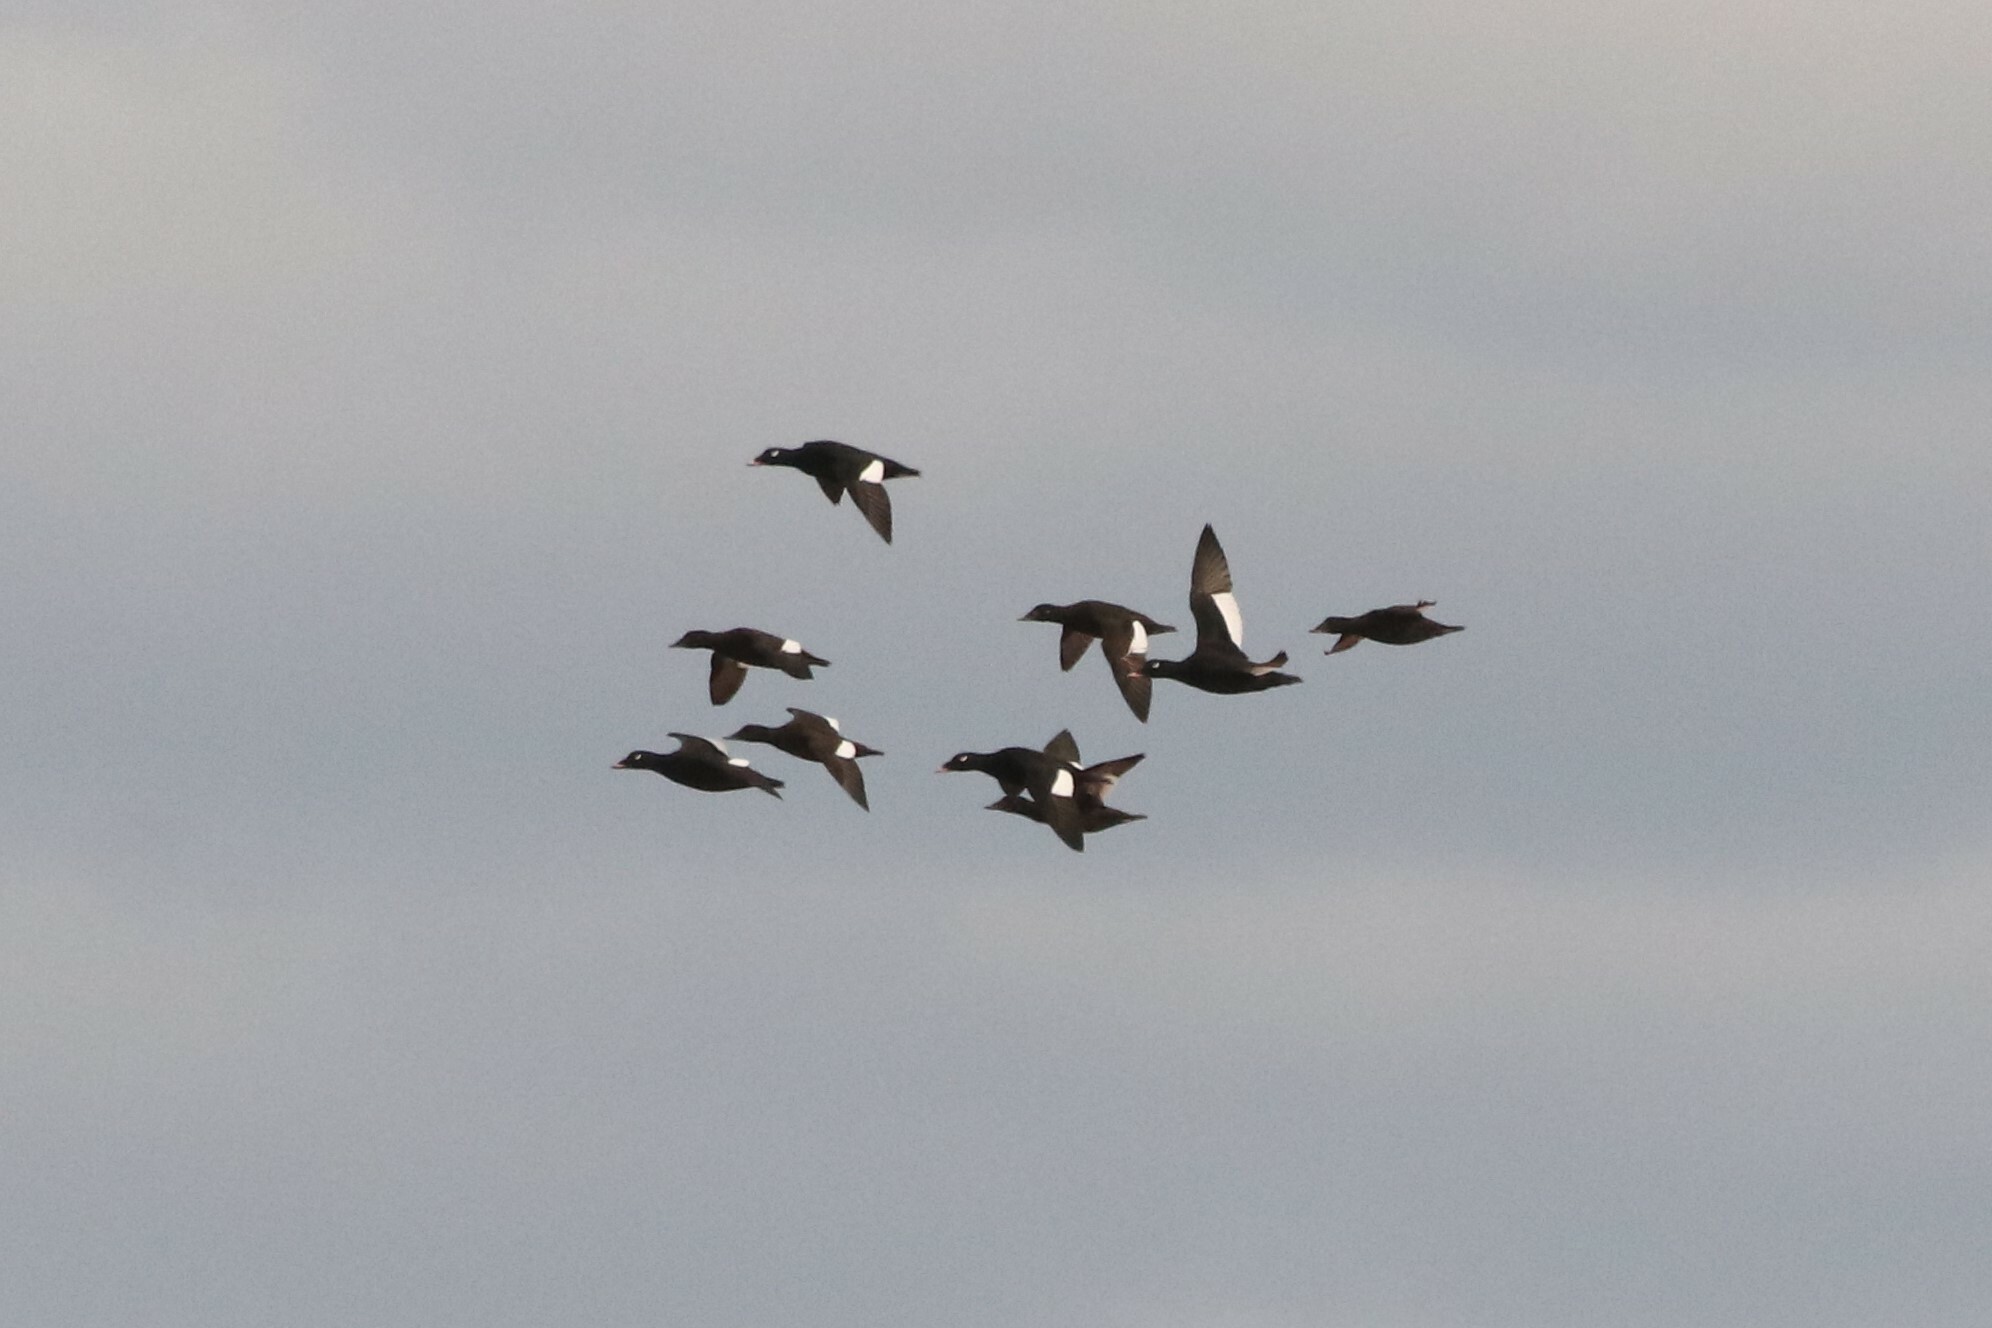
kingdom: Animalia
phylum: Chordata
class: Aves
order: Anseriformes
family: Anatidae
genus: Melanitta
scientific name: Melanitta deglandi
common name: White-winged scoter
